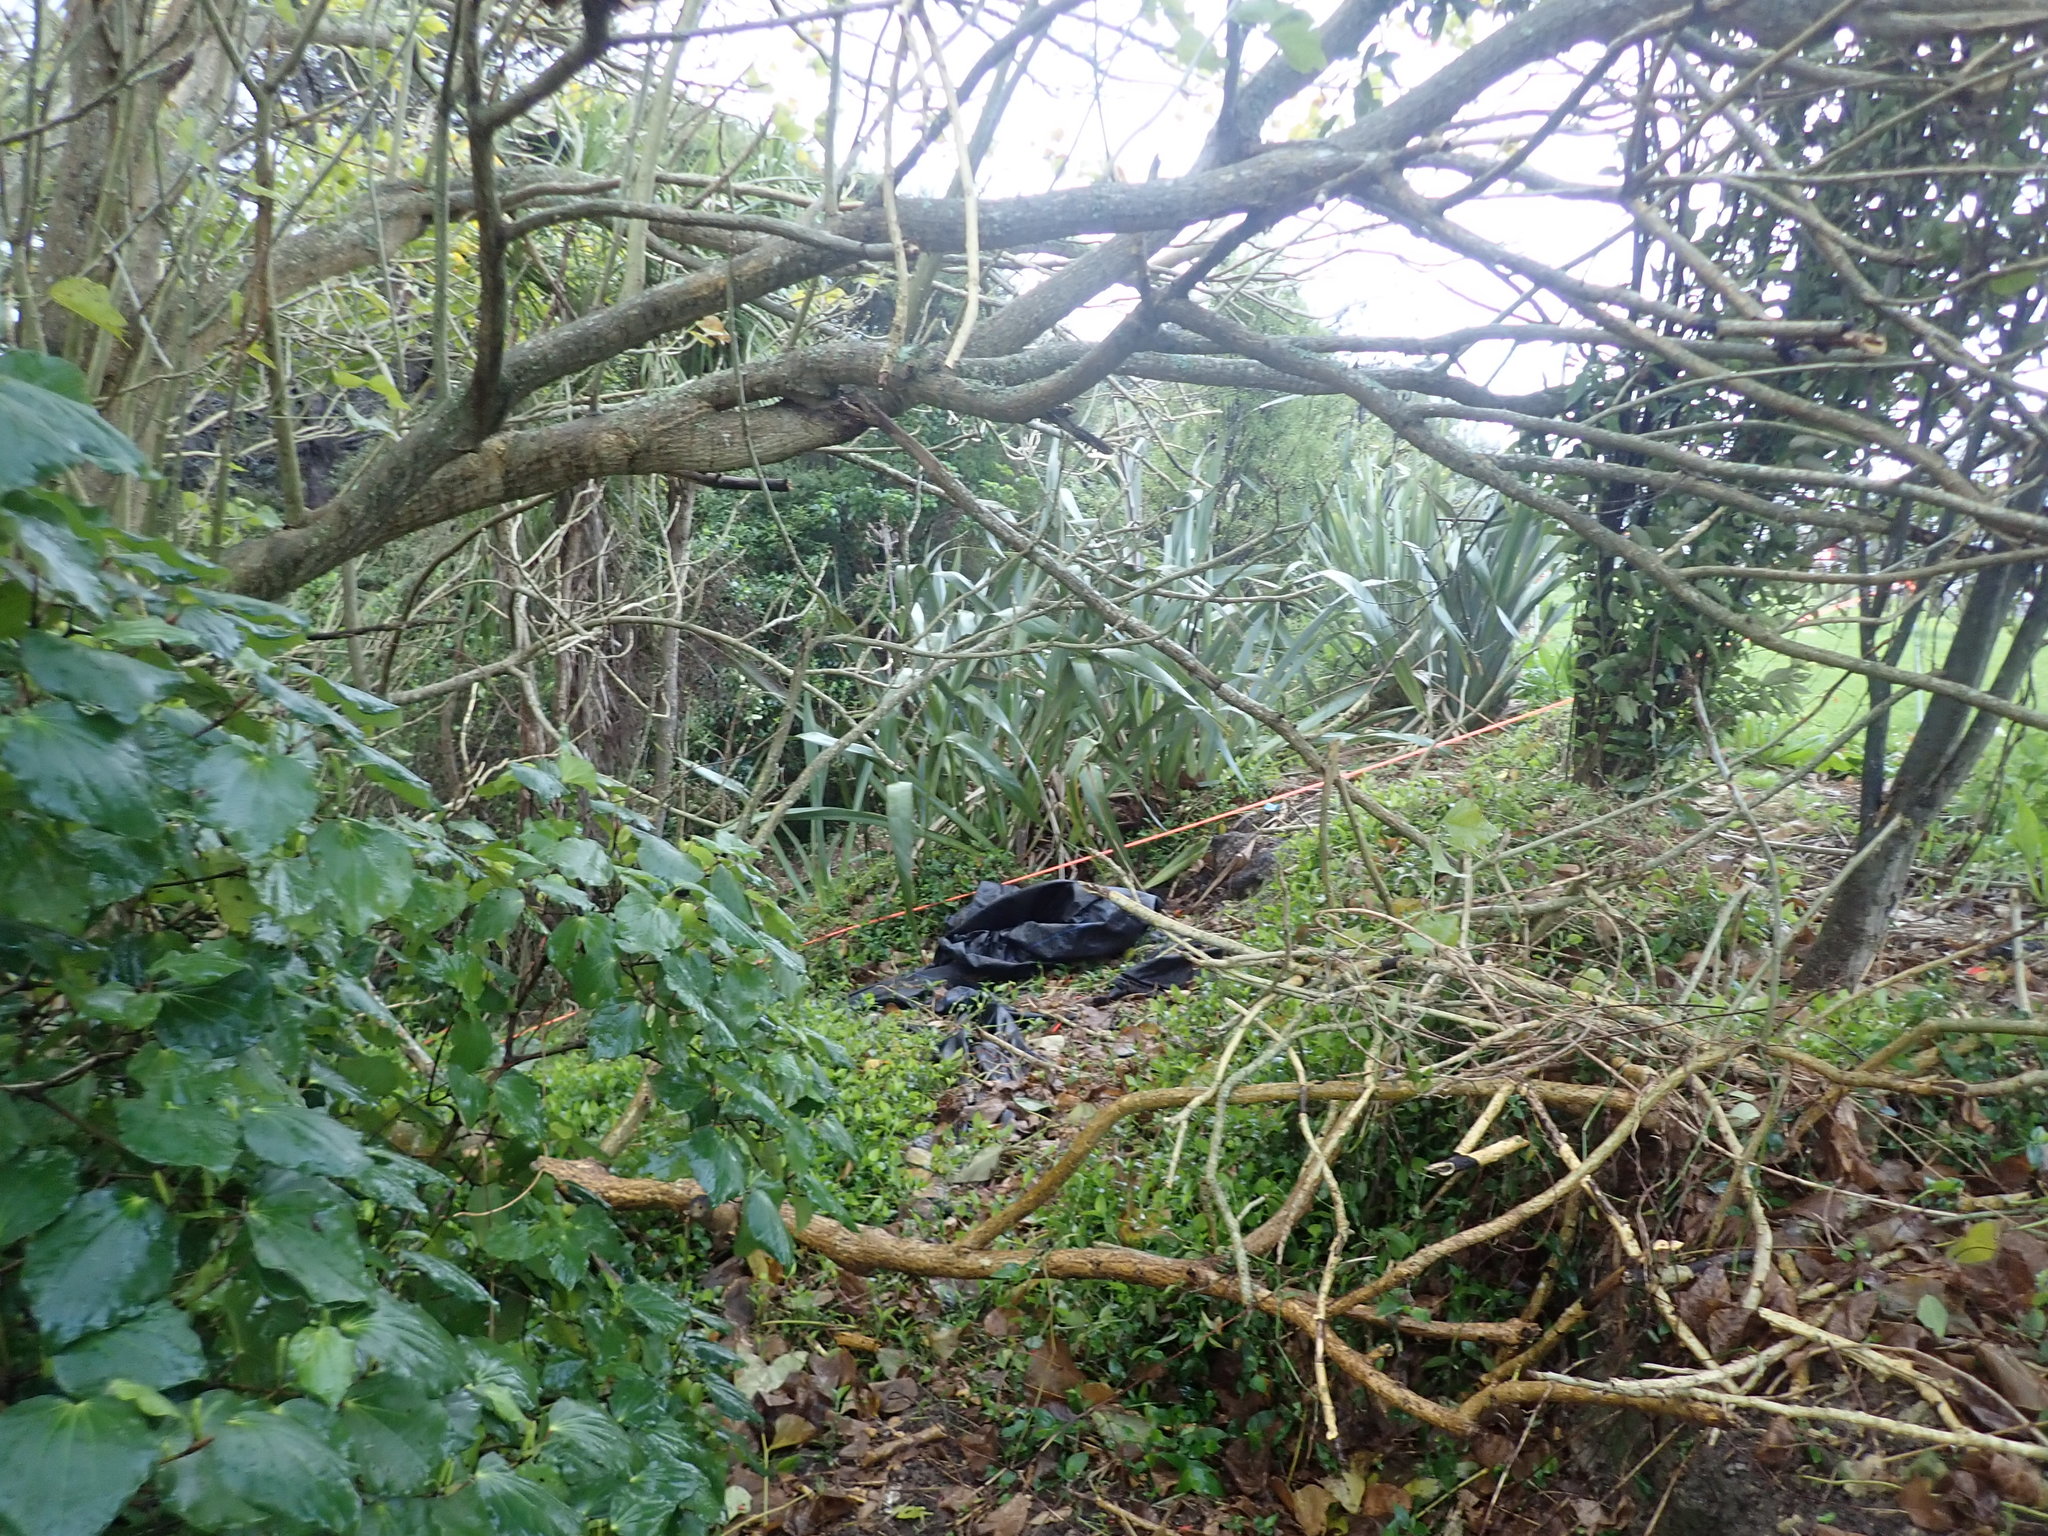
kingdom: Plantae
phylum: Tracheophyta
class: Liliopsida
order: Commelinales
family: Commelinaceae
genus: Tradescantia
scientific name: Tradescantia fluminensis
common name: Wandering-jew
